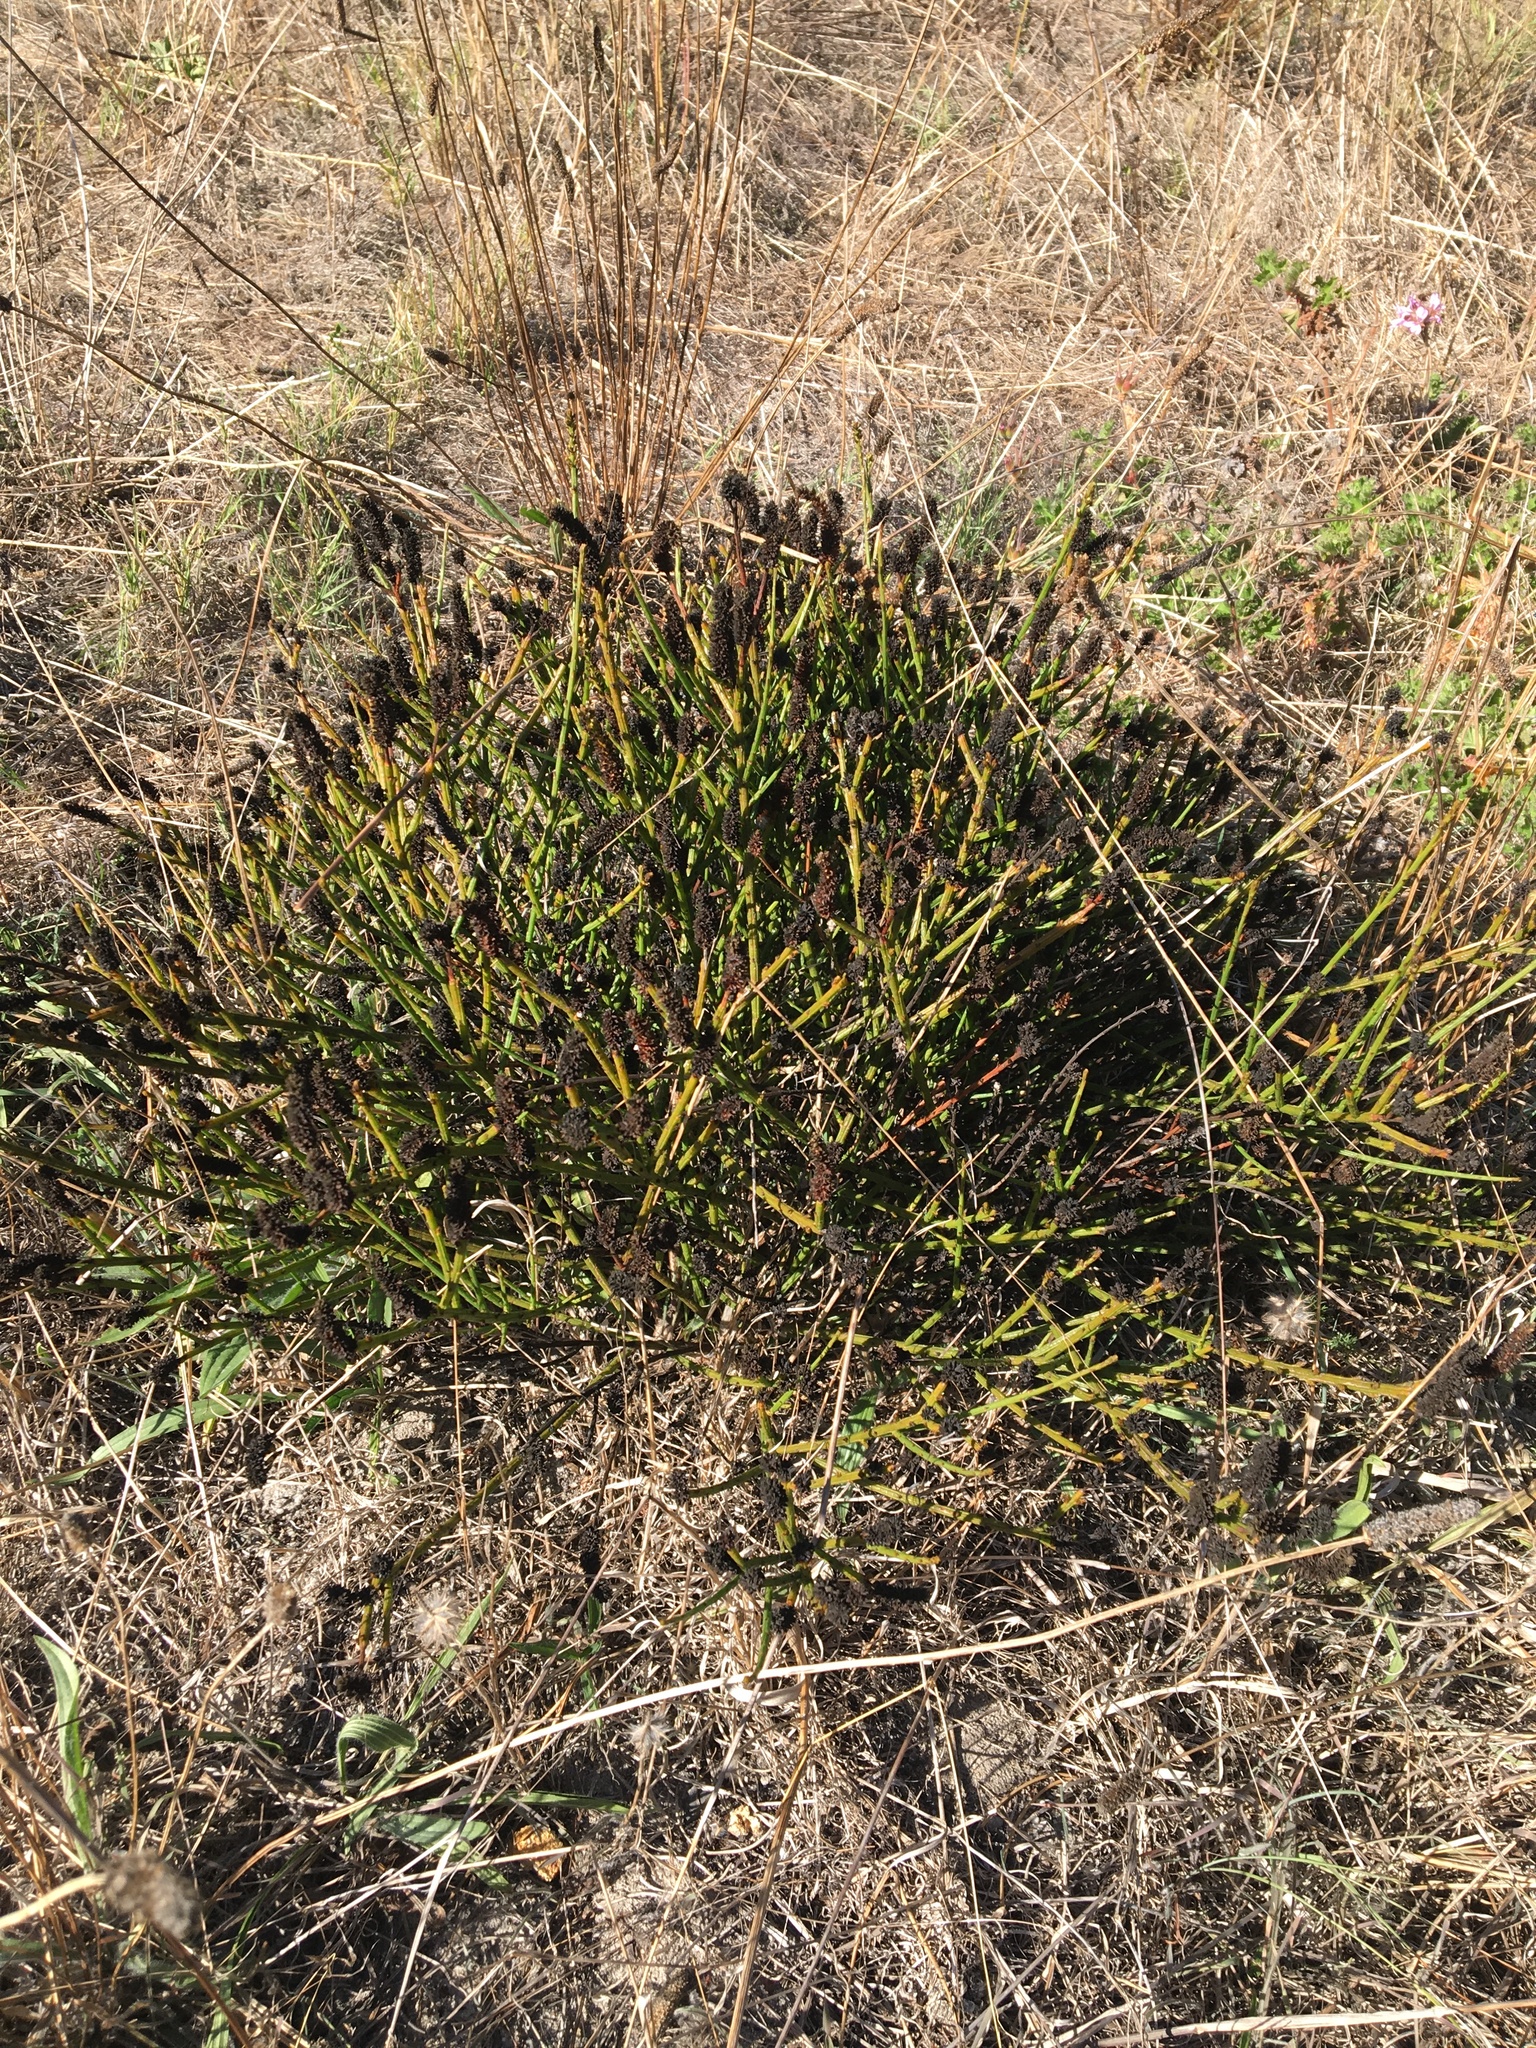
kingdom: Plantae
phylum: Tracheophyta
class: Magnoliopsida
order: Santalales
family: Thesiaceae
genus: Thesium
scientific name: Thesium acuminatum
